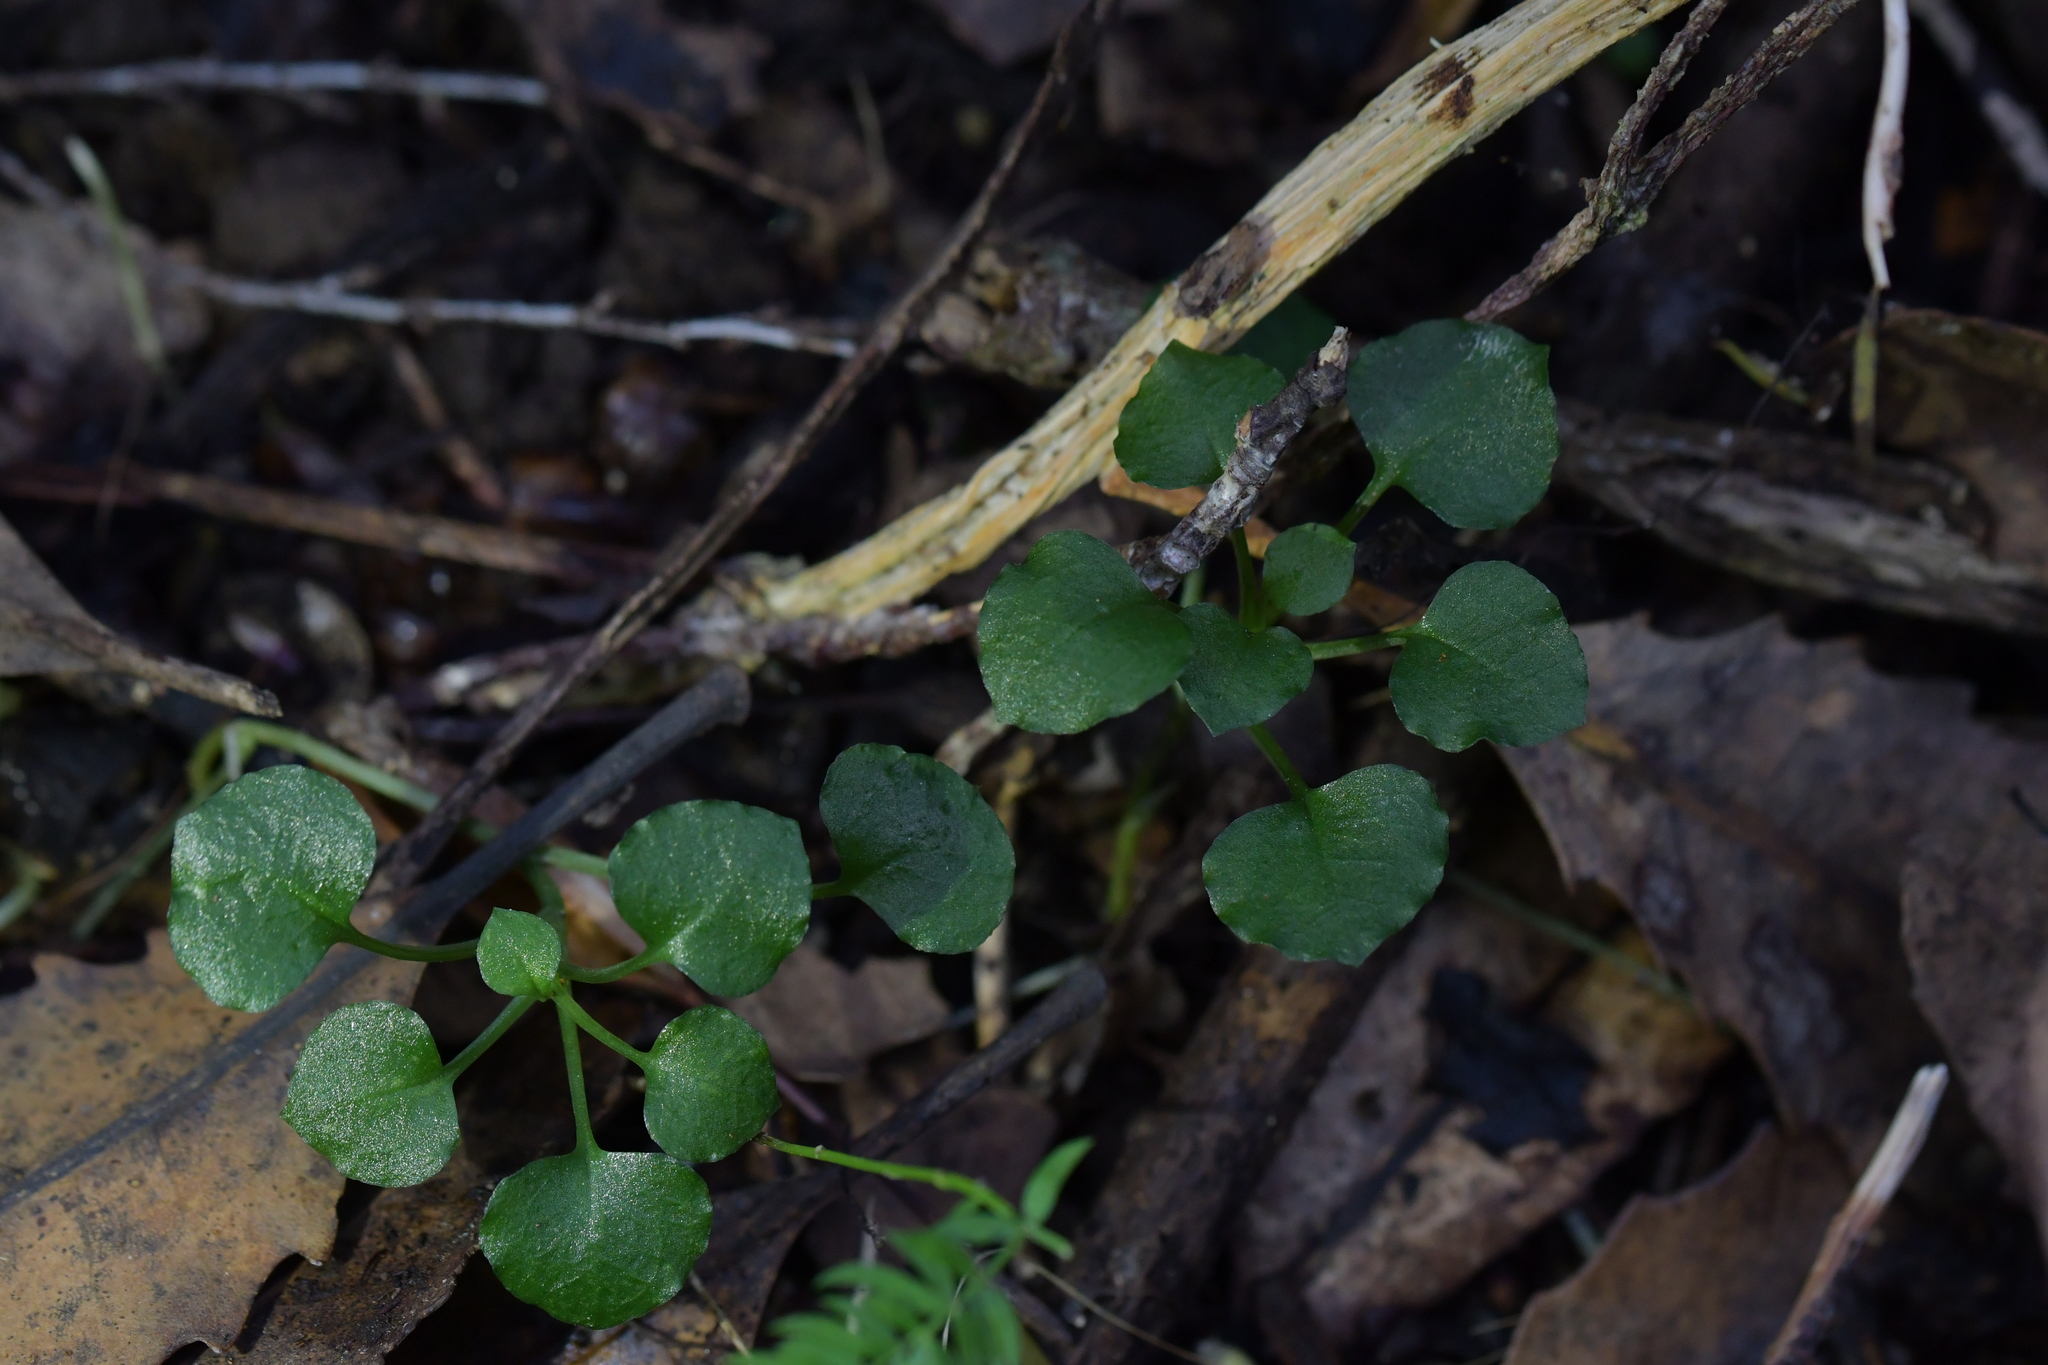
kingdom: Plantae
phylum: Tracheophyta
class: Liliopsida
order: Asparagales
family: Orchidaceae
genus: Pterostylis
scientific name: Pterostylis alobula
